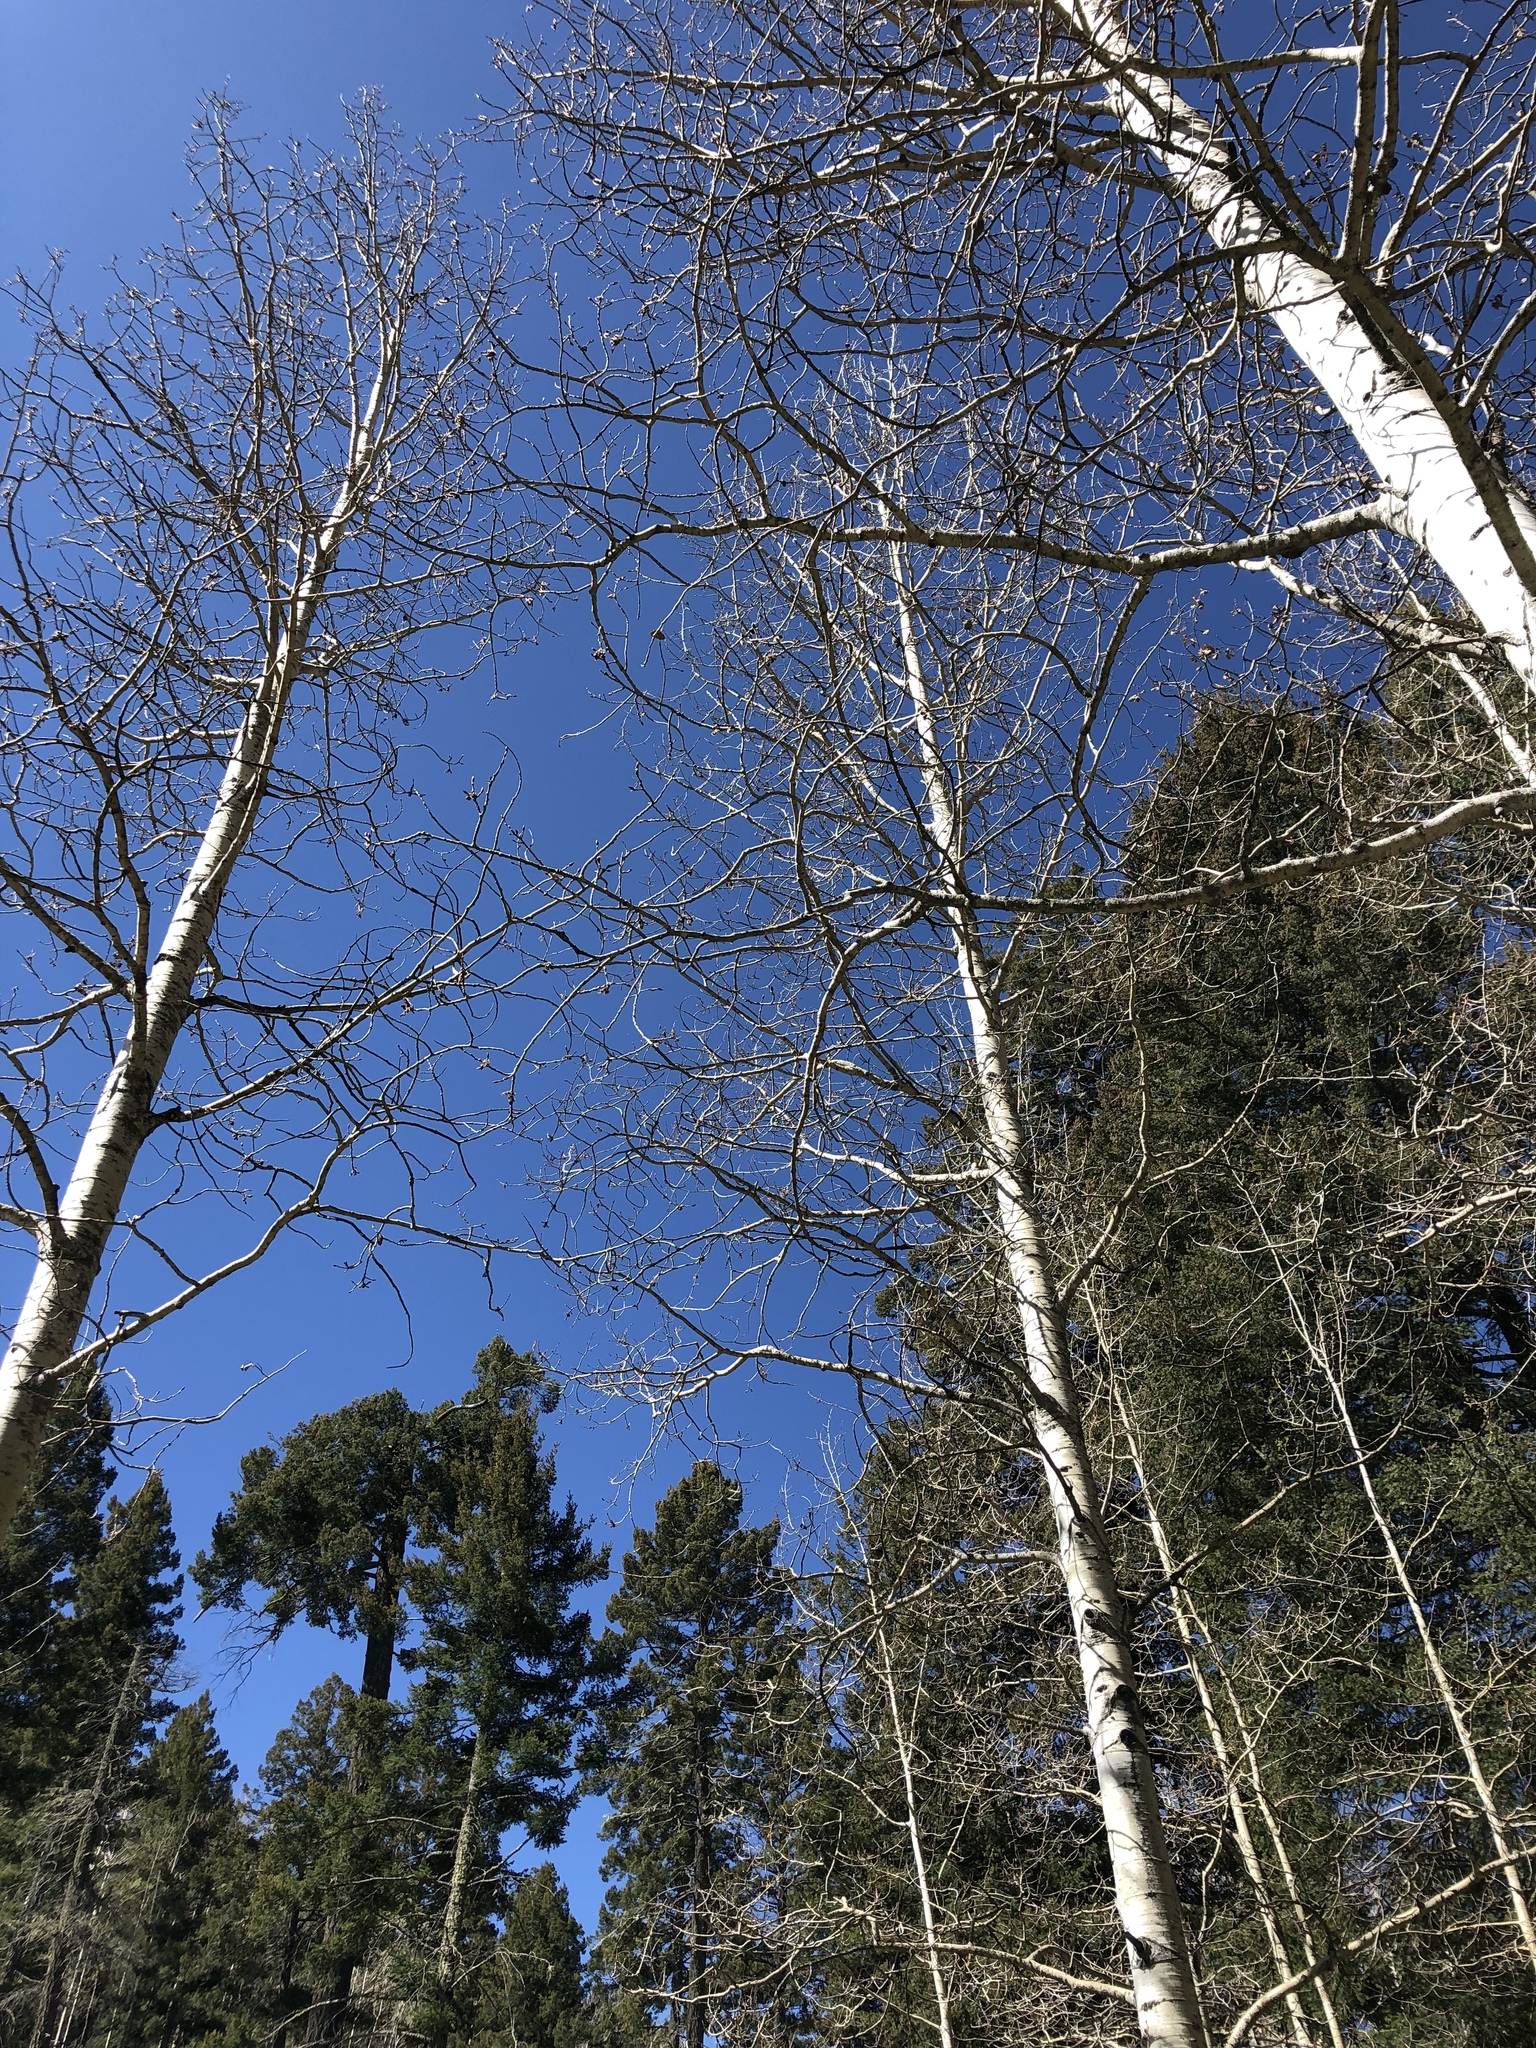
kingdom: Plantae
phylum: Tracheophyta
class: Magnoliopsida
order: Malpighiales
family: Salicaceae
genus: Populus
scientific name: Populus tremuloides
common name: Quaking aspen
